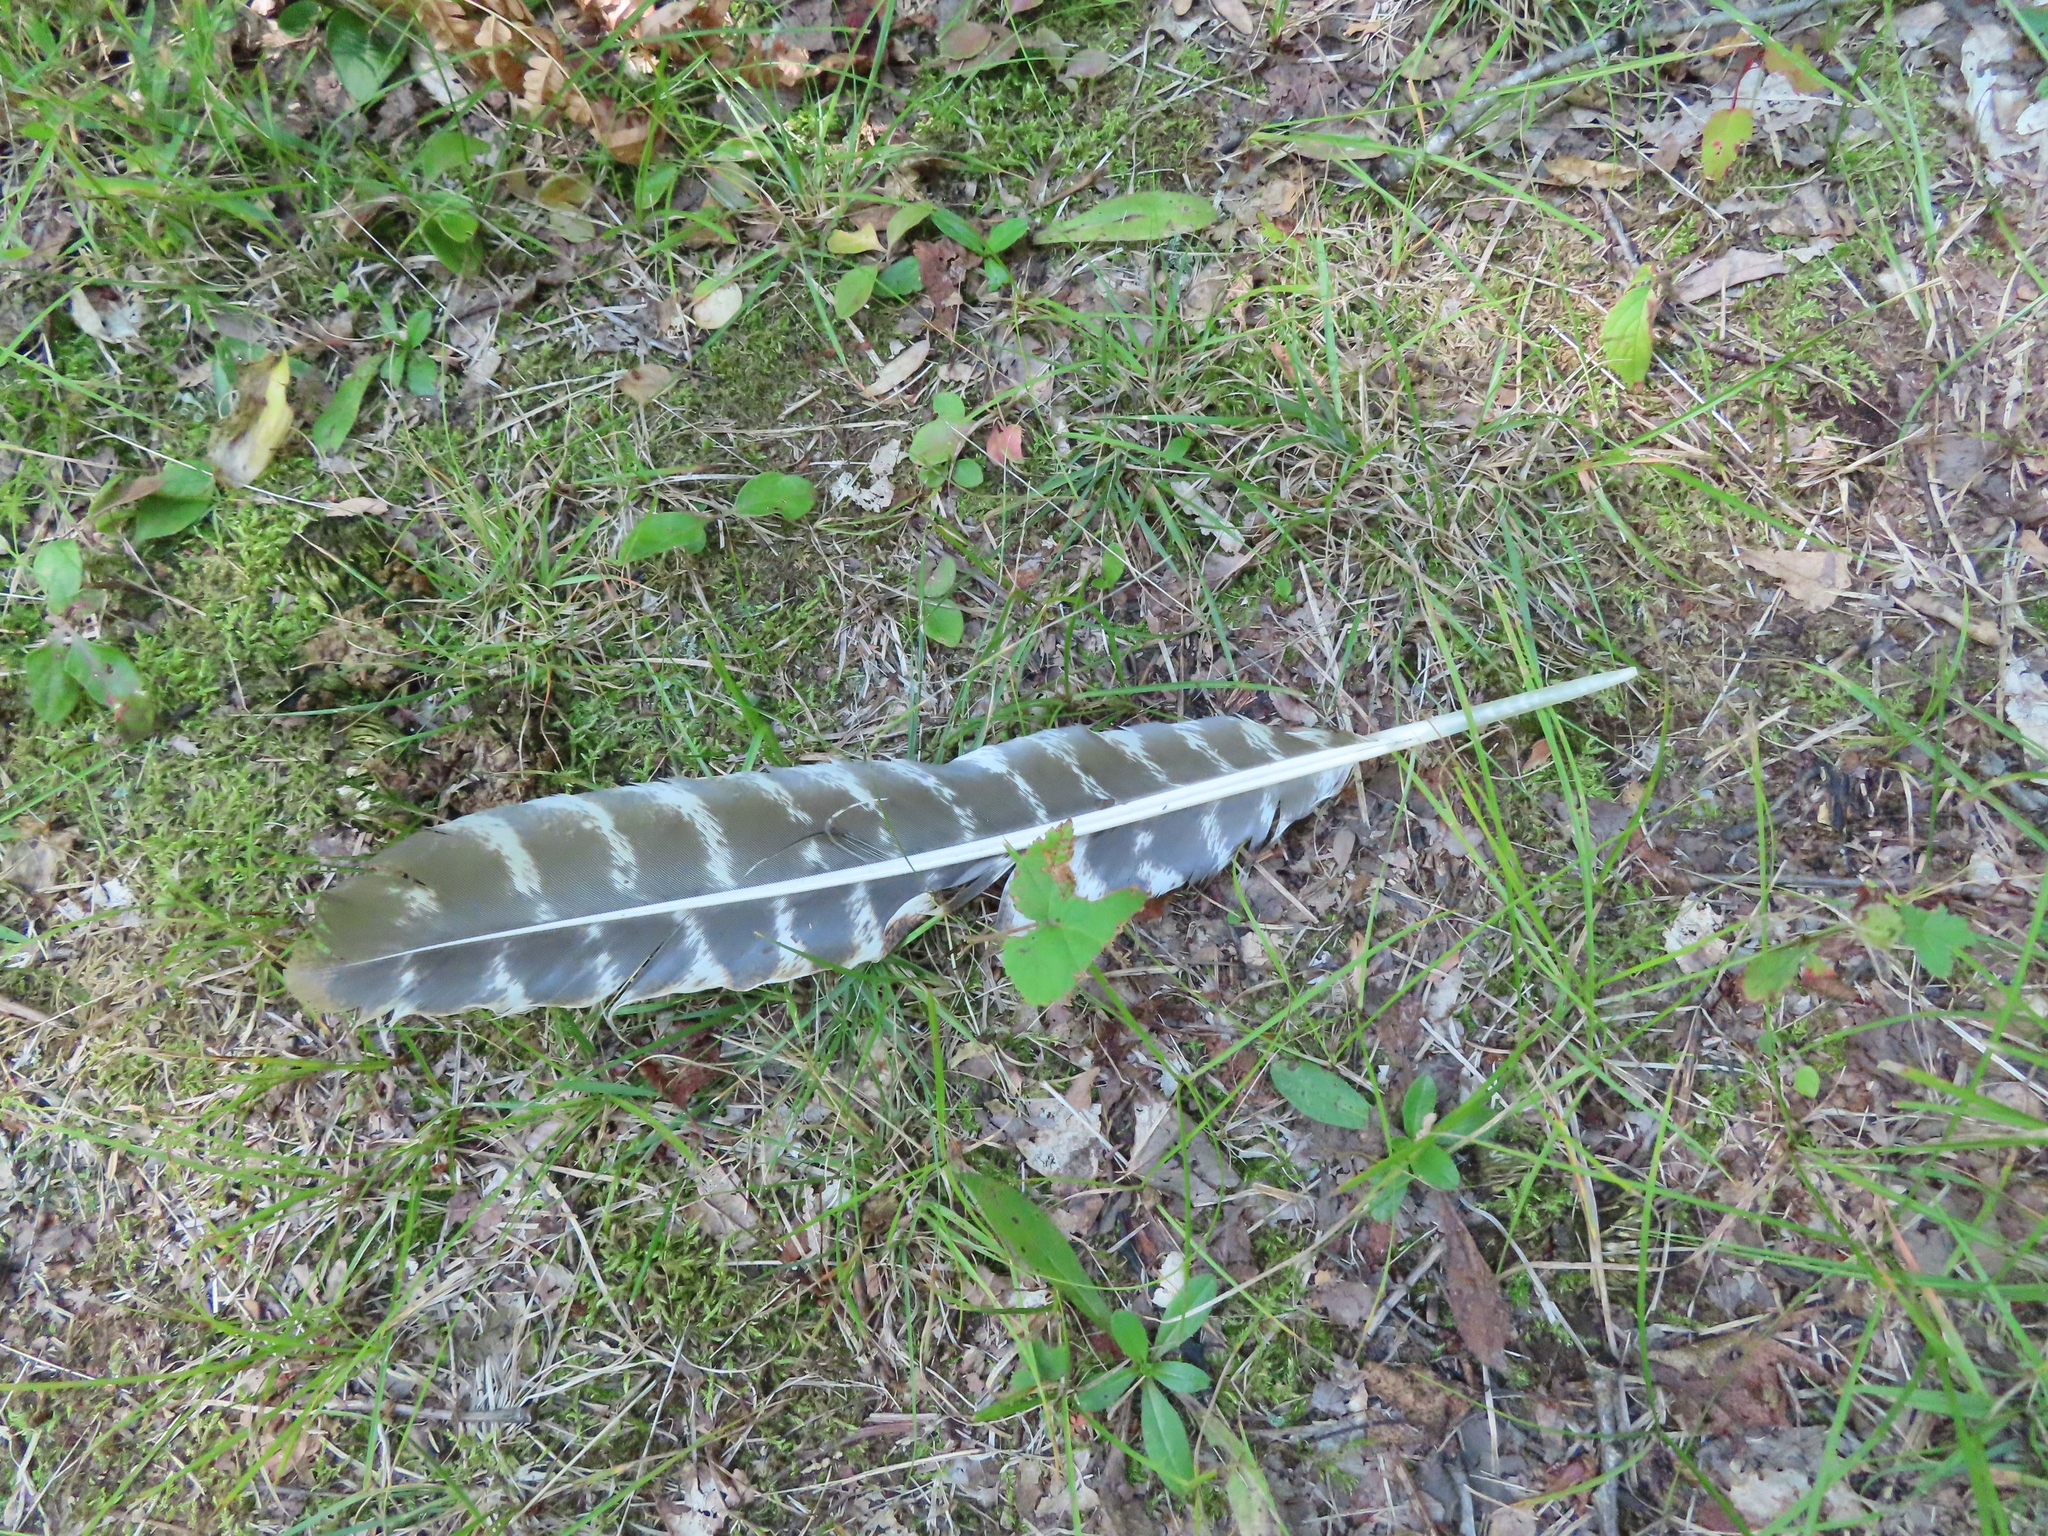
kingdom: Animalia
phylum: Chordata
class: Aves
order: Galliformes
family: Phasianidae
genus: Meleagris
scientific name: Meleagris gallopavo
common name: Wild turkey
